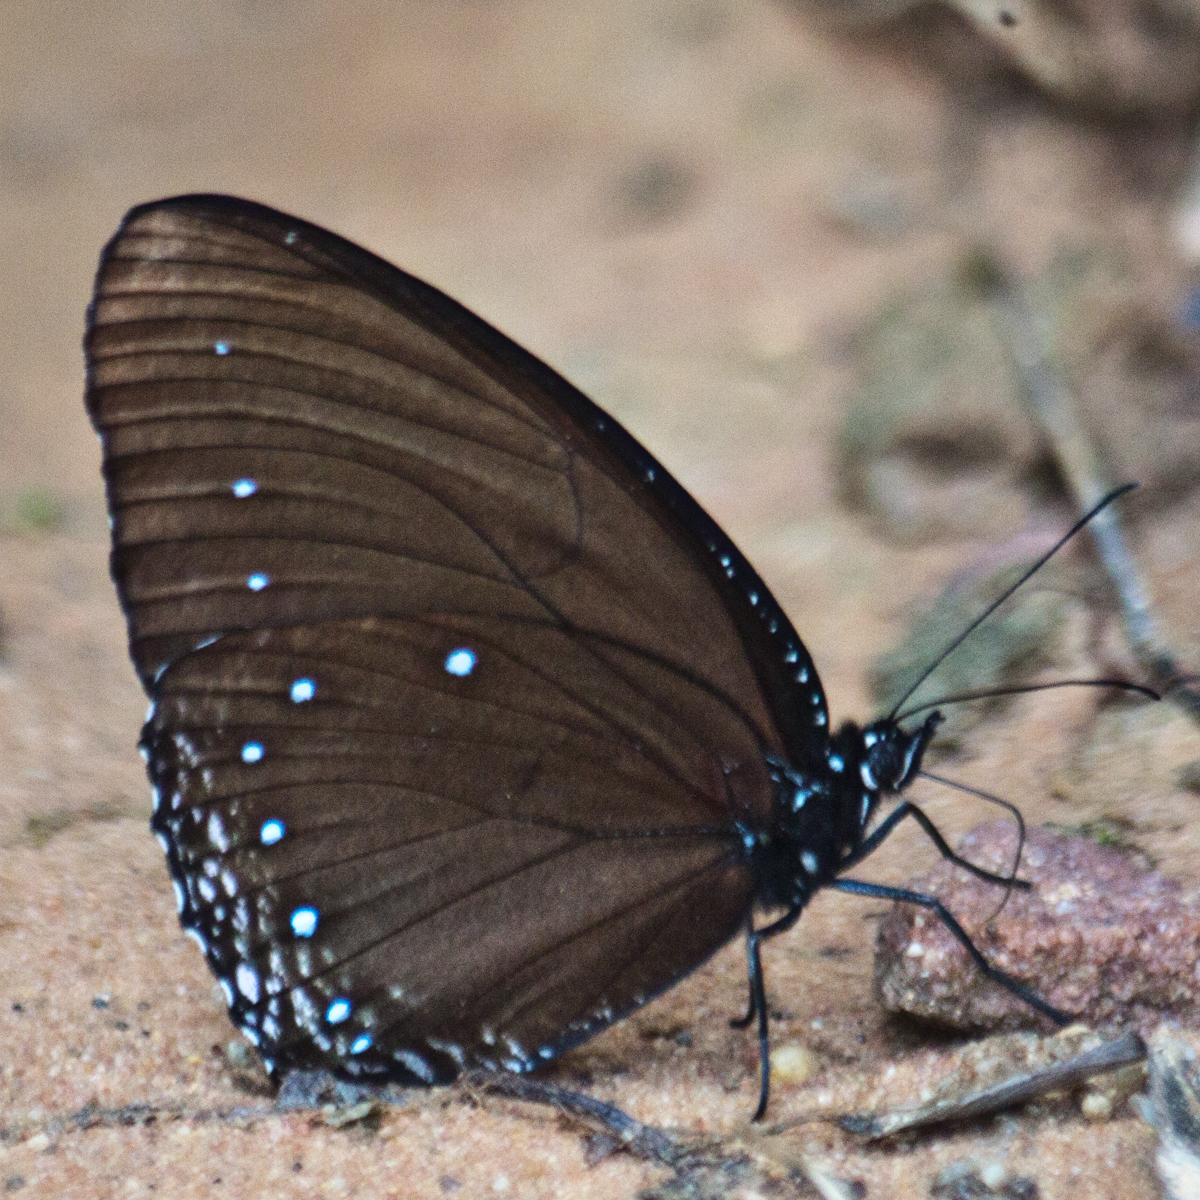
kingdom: Animalia
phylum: Arthropoda
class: Insecta
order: Lepidoptera
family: Nymphalidae
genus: Elymnias
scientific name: Elymnias patna
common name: Blue-striped palmfly
